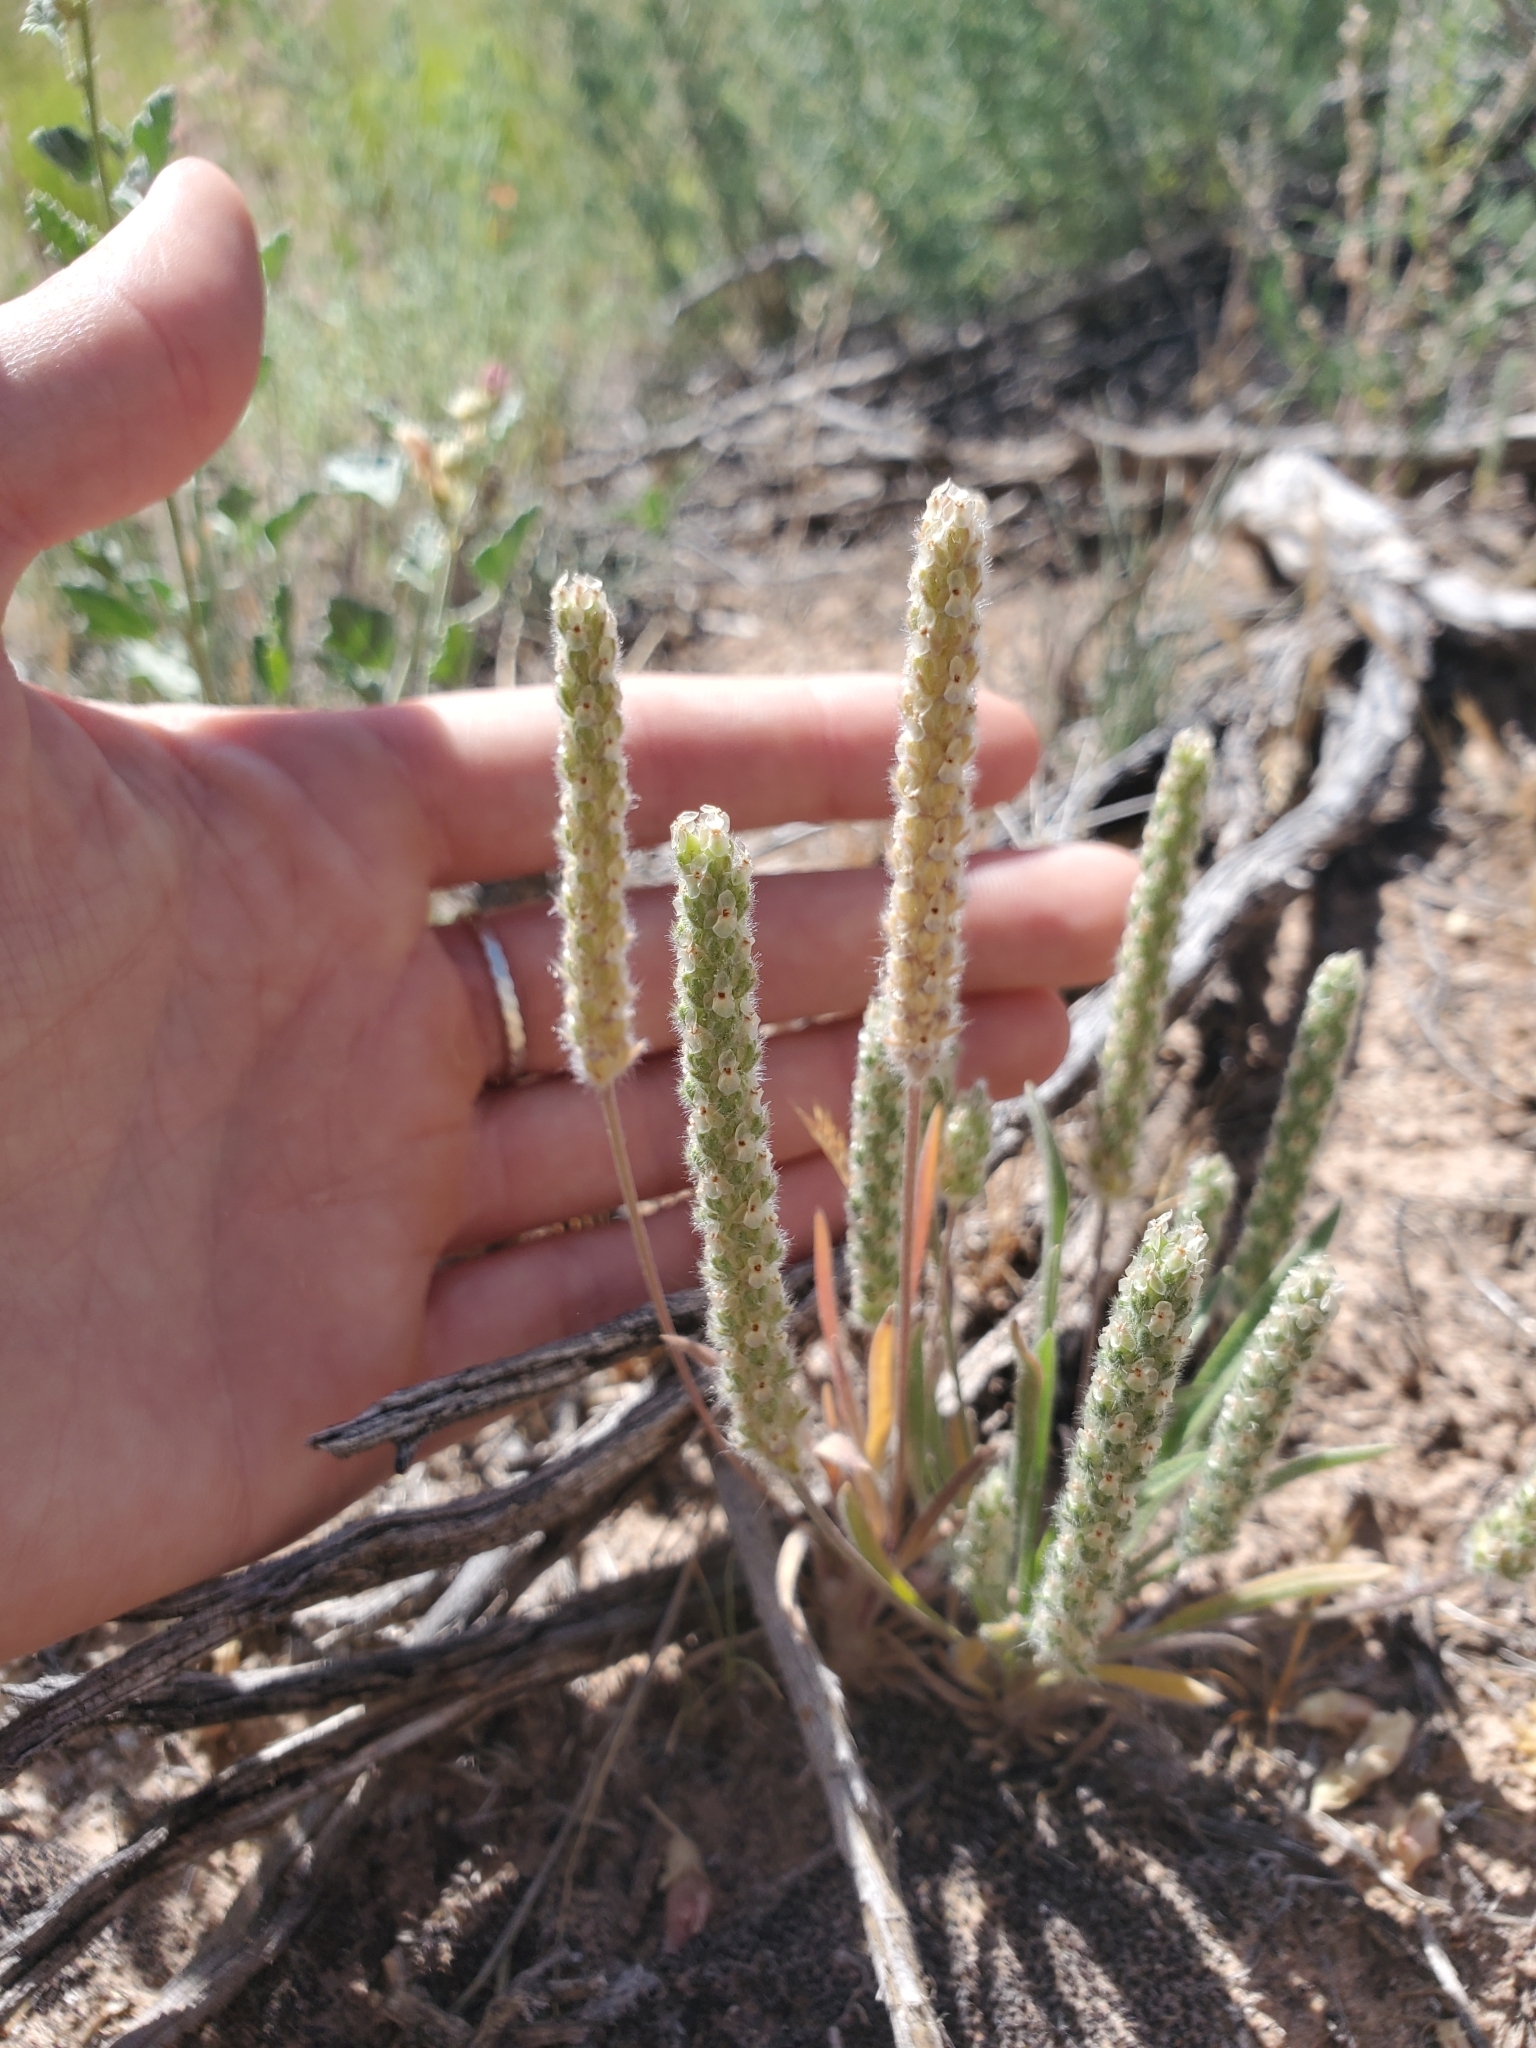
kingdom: Plantae
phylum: Tracheophyta
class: Magnoliopsida
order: Lamiales
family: Plantaginaceae
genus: Plantago
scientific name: Plantago patagonica
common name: Patagonia indian-wheat
